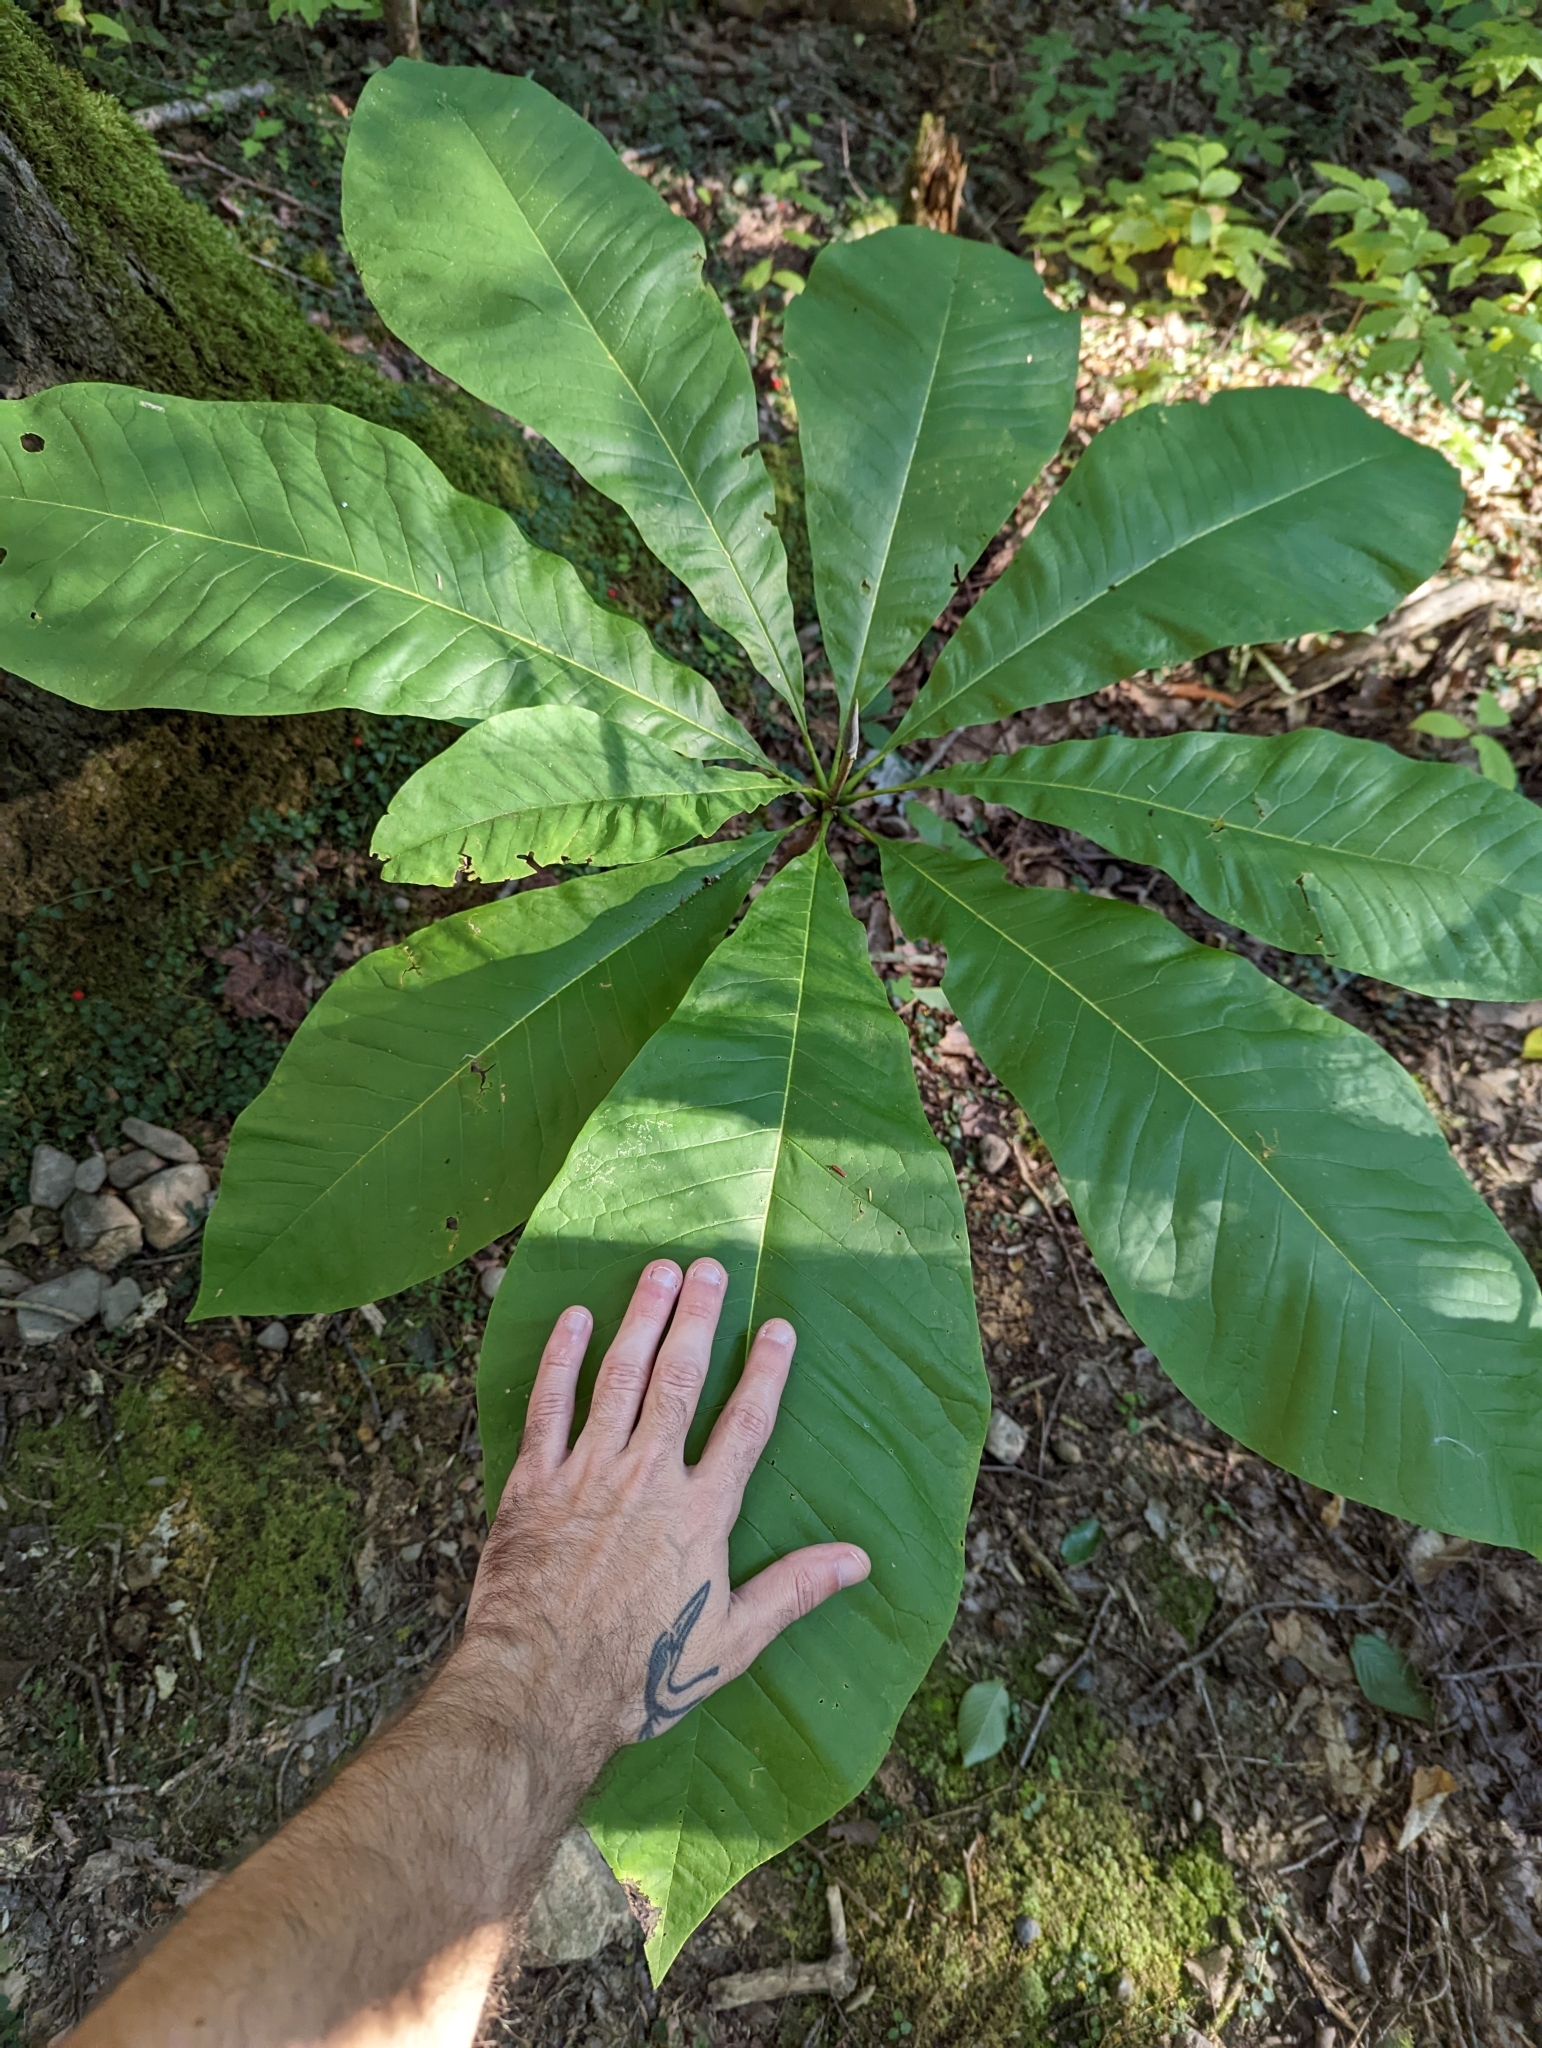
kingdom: Plantae
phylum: Tracheophyta
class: Magnoliopsida
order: Magnoliales
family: Magnoliaceae
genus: Magnolia
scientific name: Magnolia tripetala
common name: Umbrella magnolia
